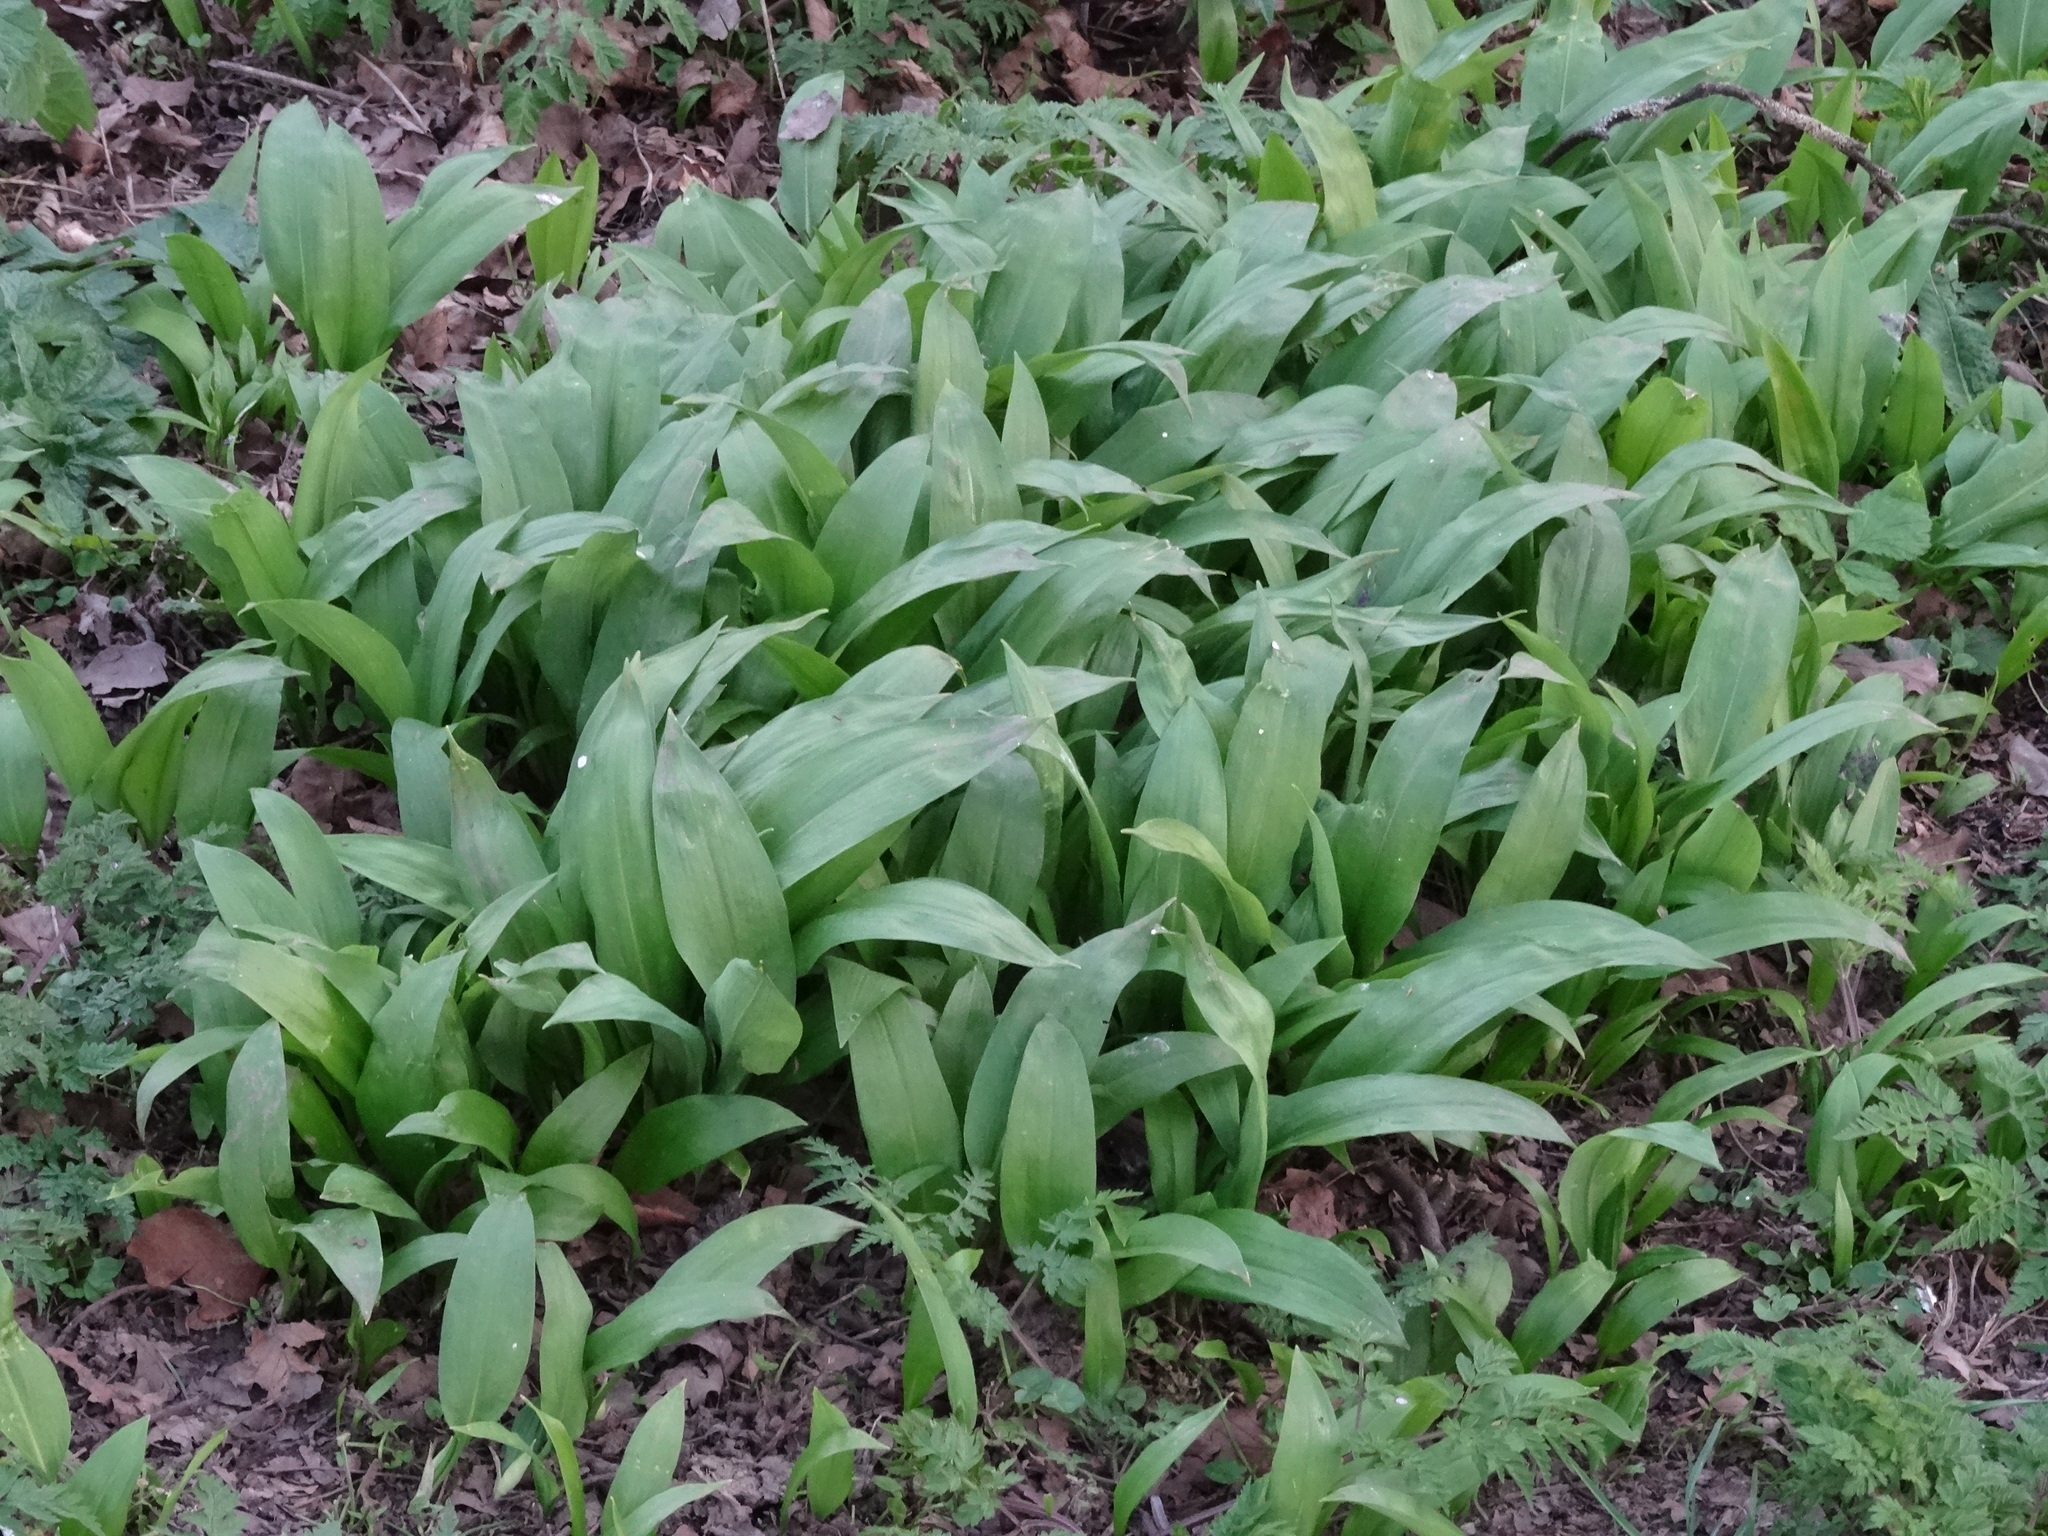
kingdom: Plantae
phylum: Tracheophyta
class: Liliopsida
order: Asparagales
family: Amaryllidaceae
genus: Allium
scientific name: Allium ursinum
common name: Ramsons
